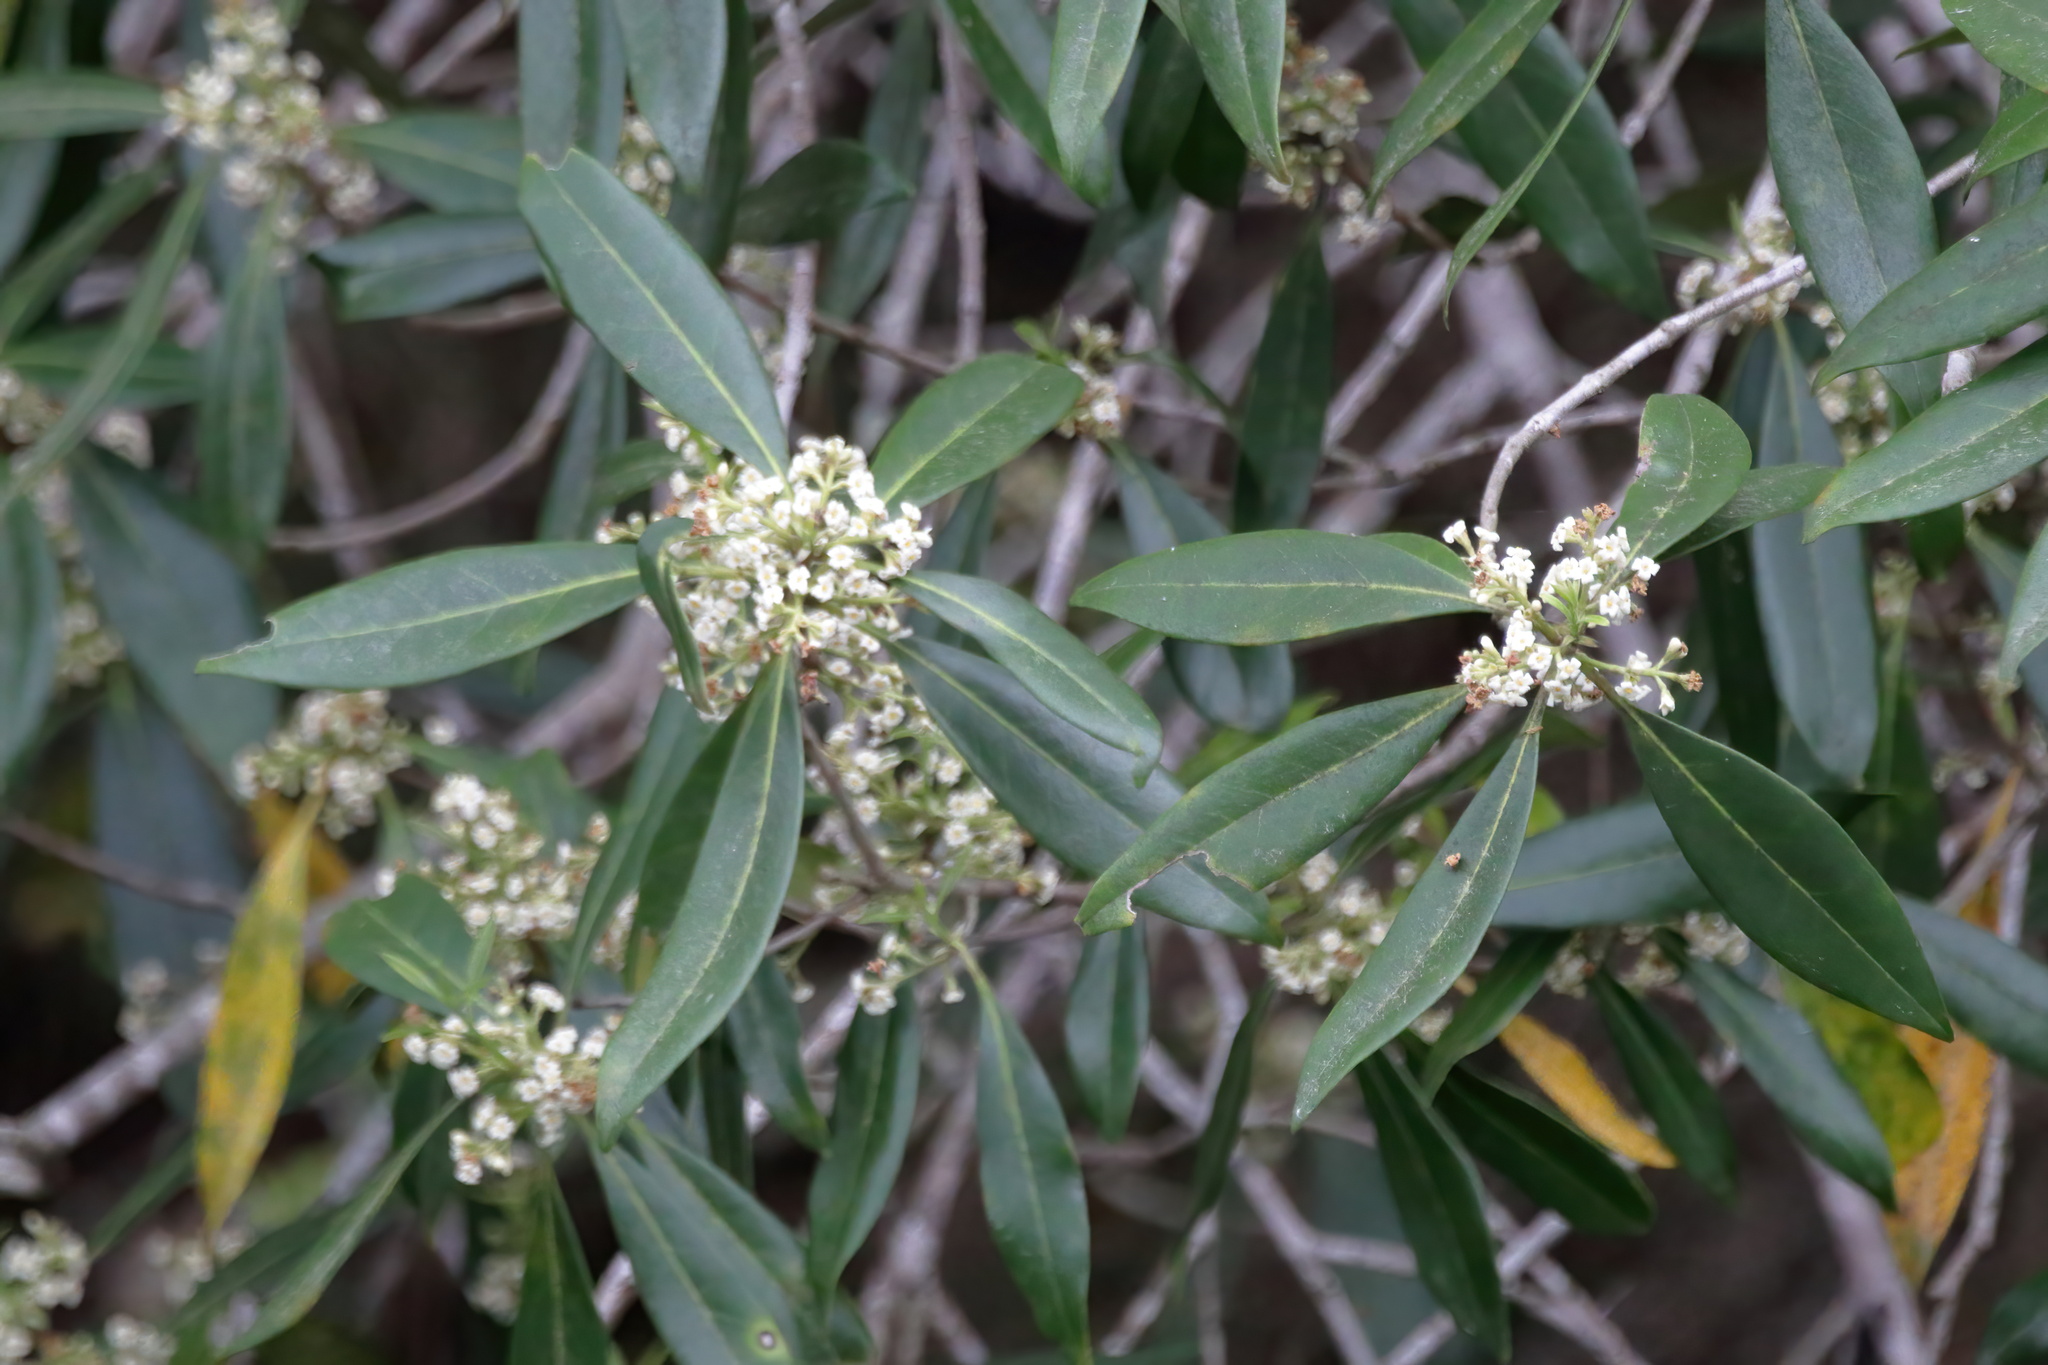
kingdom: Plantae
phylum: Tracheophyta
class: Magnoliopsida
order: Lamiales
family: Oleaceae
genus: Cartrema
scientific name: Cartrema americana
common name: Devilwood
